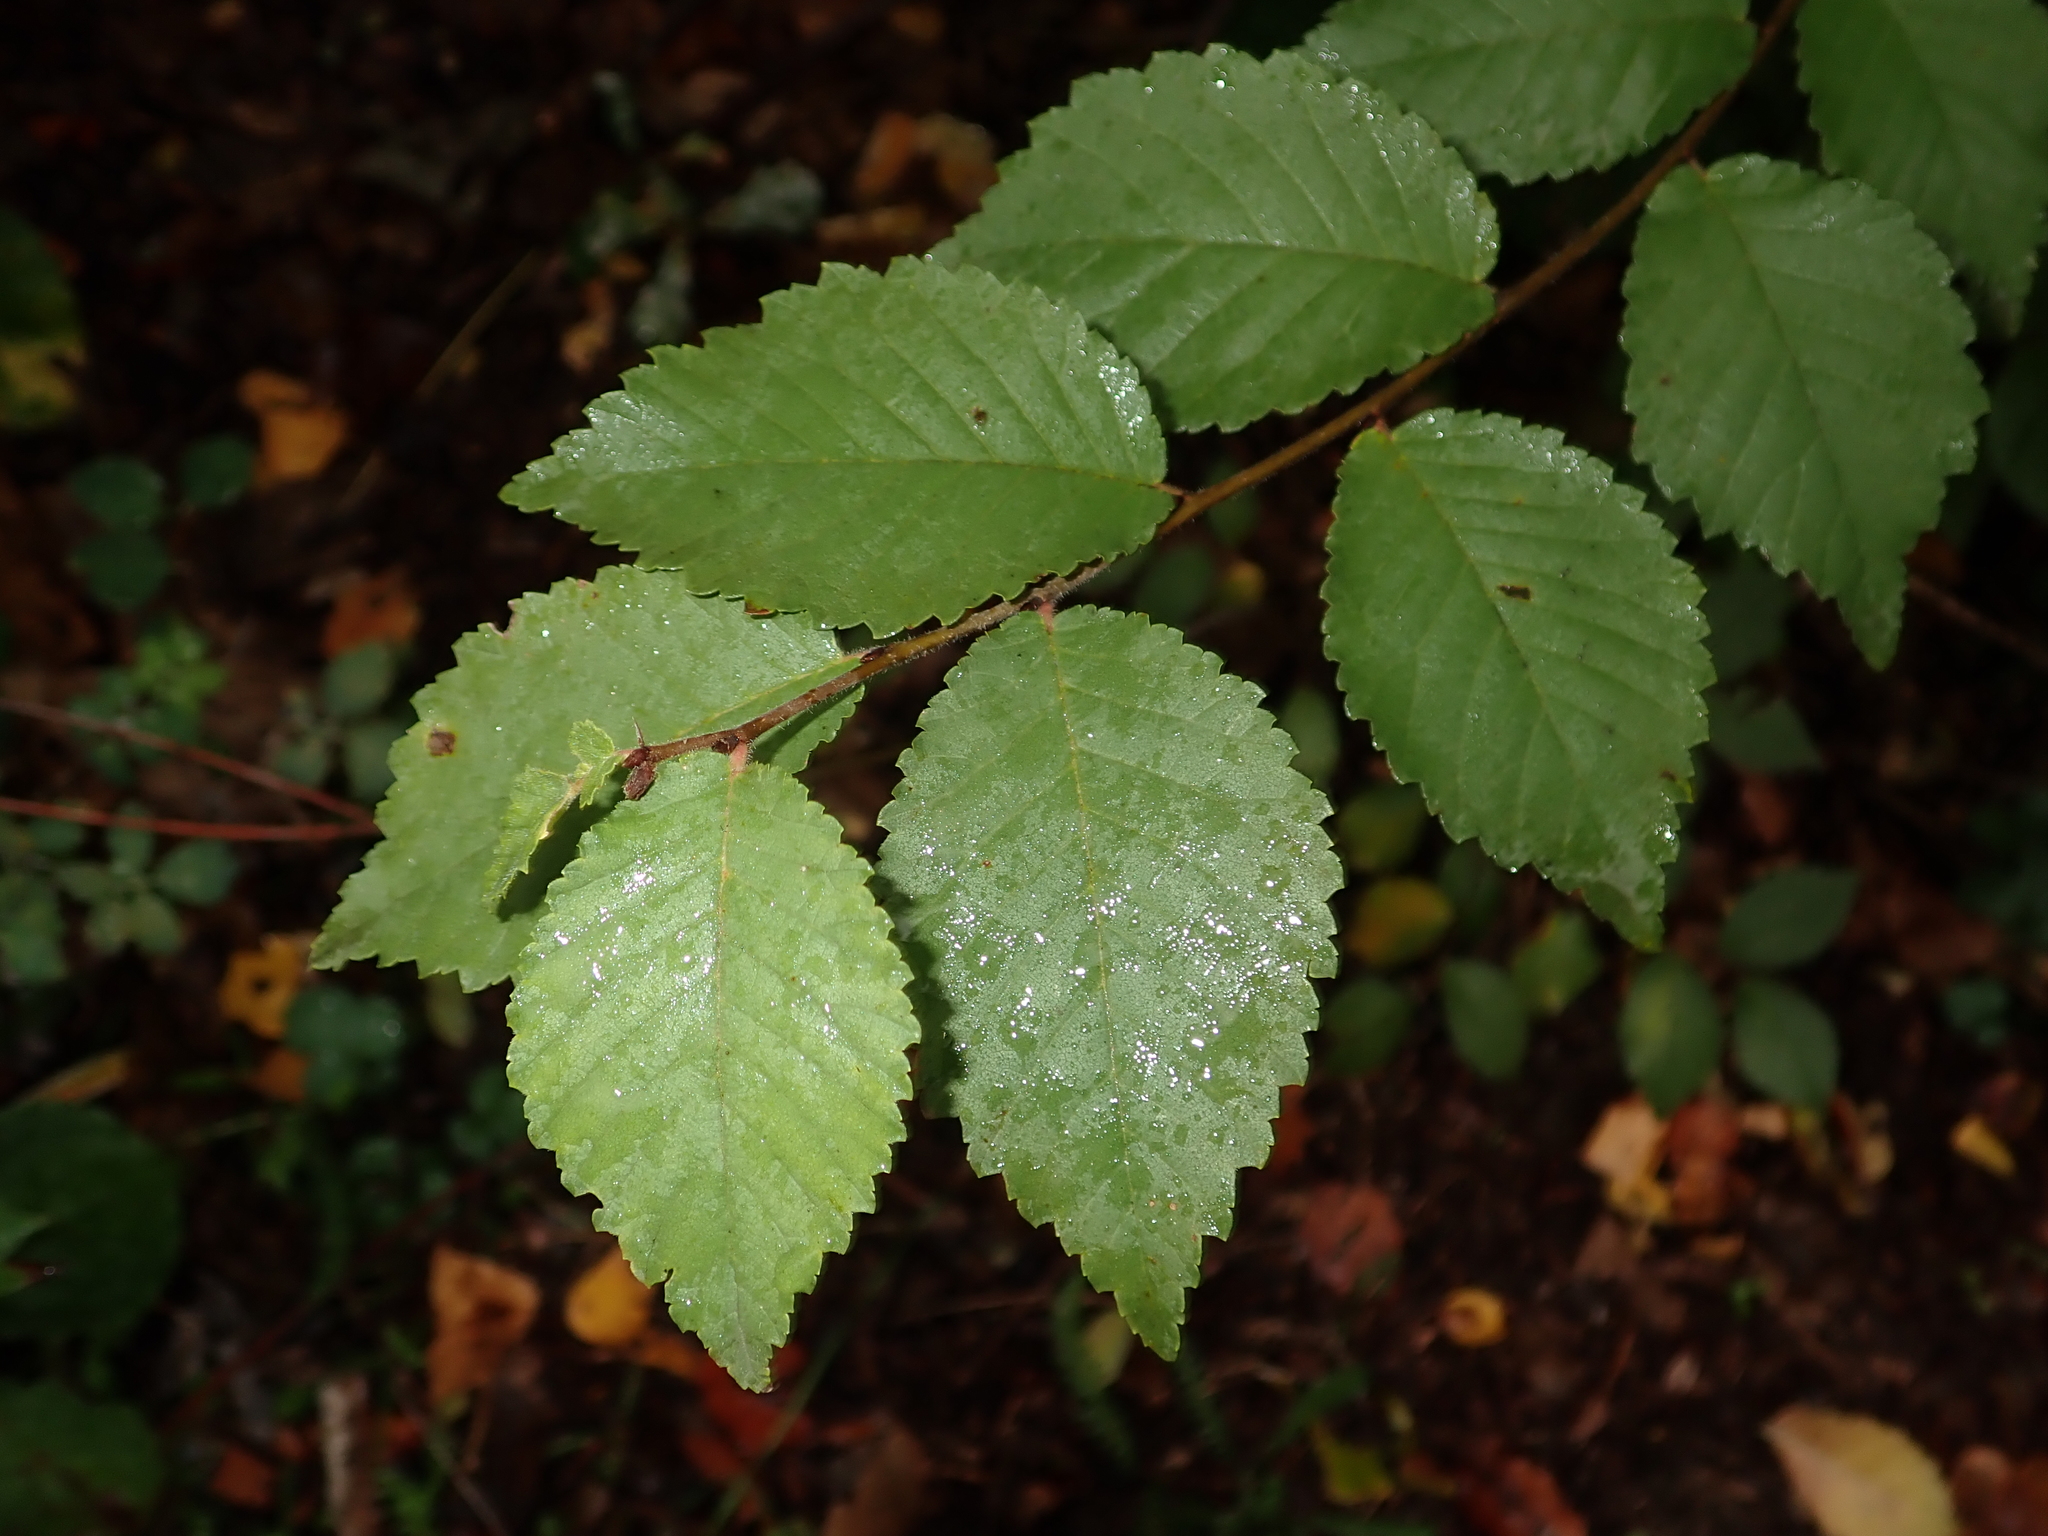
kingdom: Plantae
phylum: Tracheophyta
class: Magnoliopsida
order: Rosales
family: Ulmaceae
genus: Ulmus
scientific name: Ulmus minor
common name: Small-leaved elm
